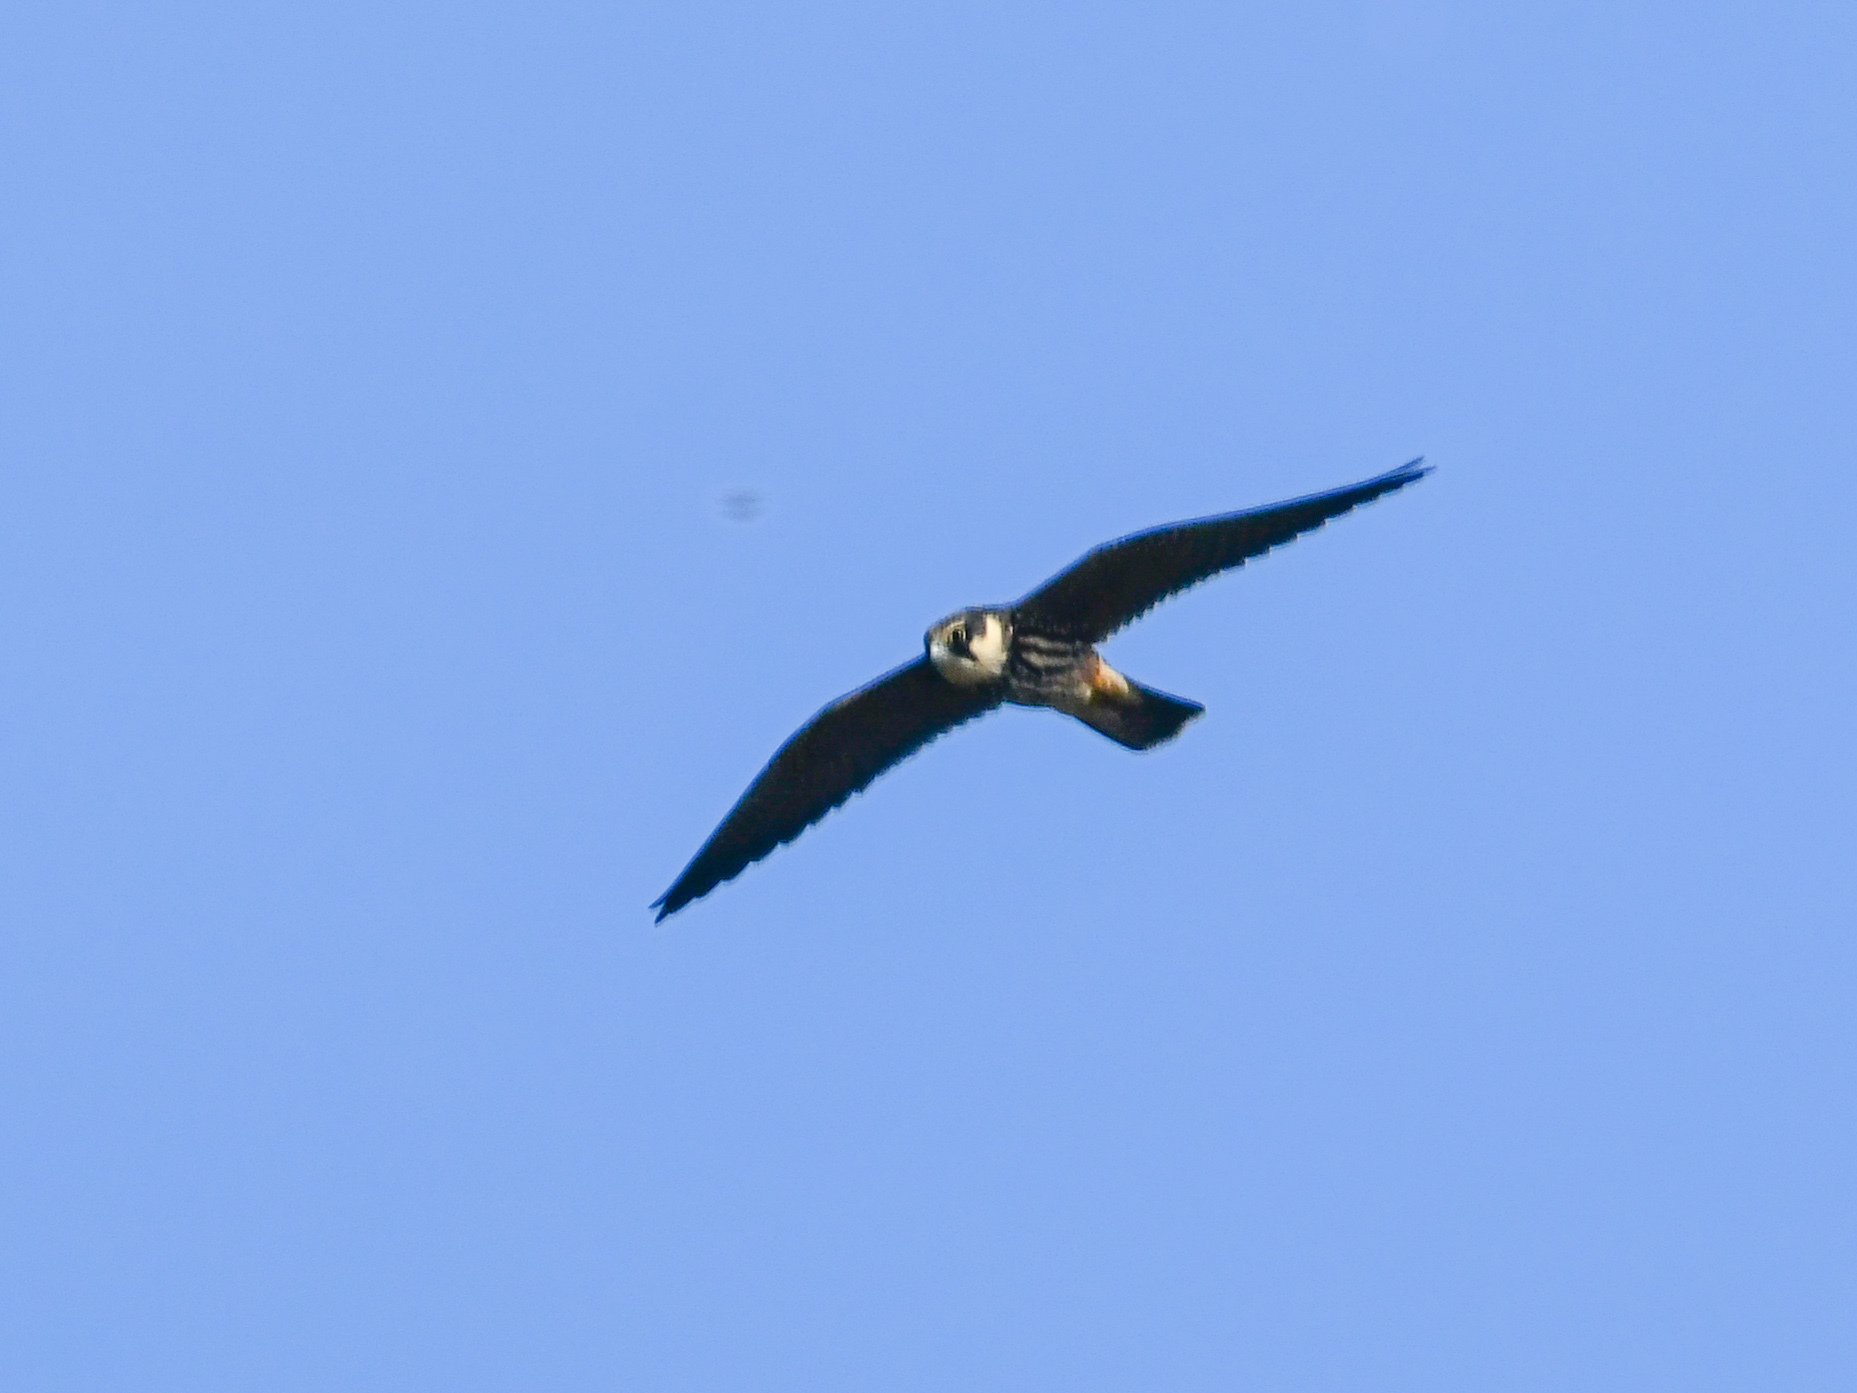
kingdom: Animalia
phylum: Chordata
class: Aves
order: Falconiformes
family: Falconidae
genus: Falco
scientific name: Falco subbuteo
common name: Eurasian hobby
